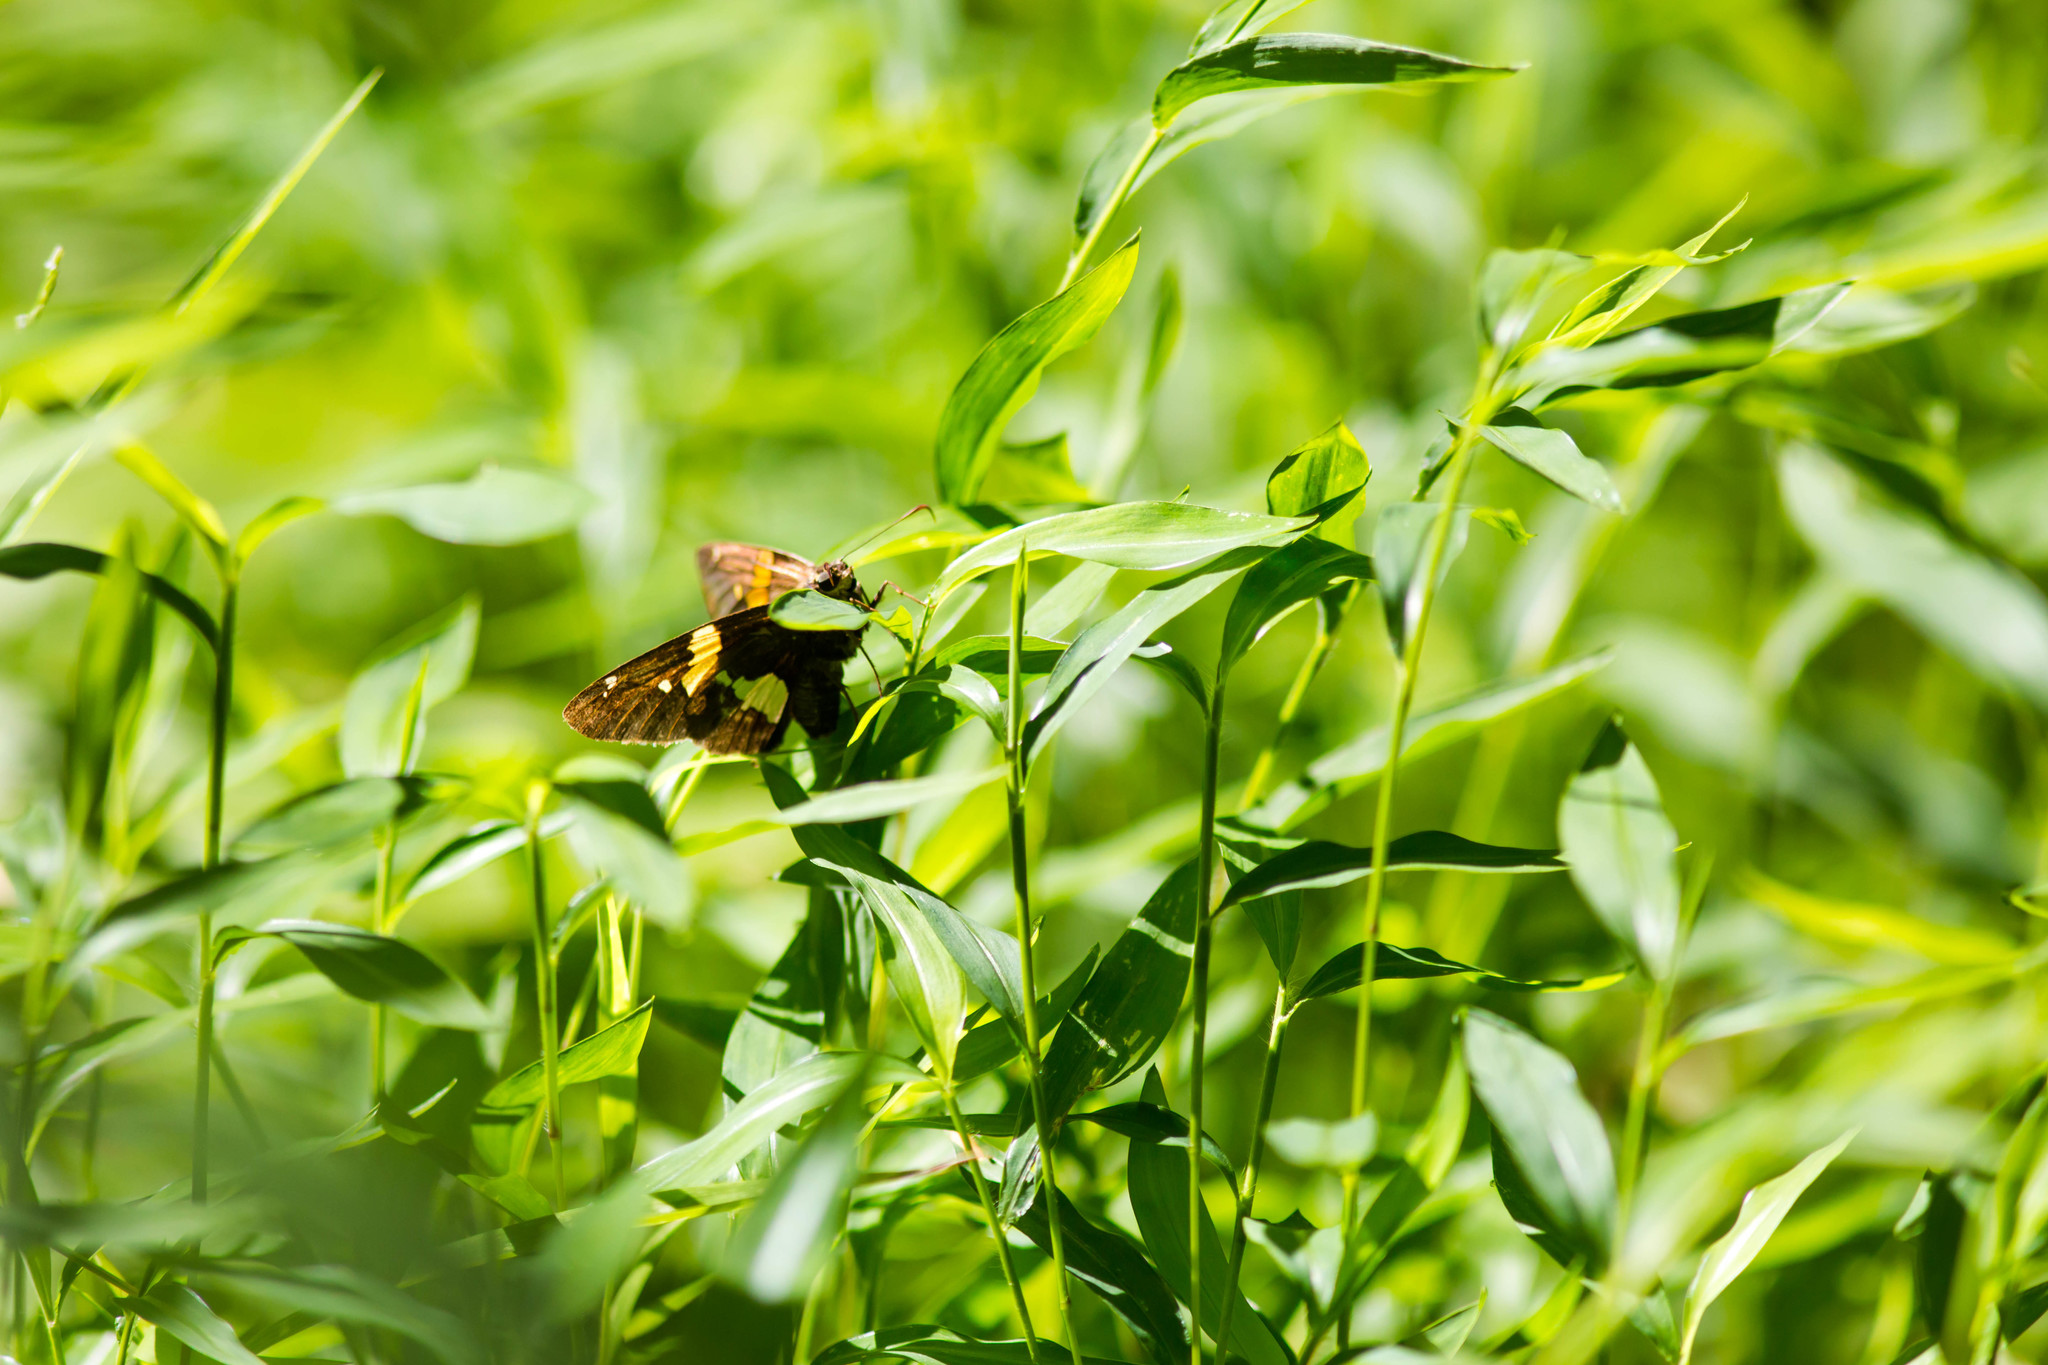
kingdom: Animalia
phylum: Arthropoda
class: Insecta
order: Lepidoptera
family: Hesperiidae
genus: Epargyreus
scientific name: Epargyreus clarus
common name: Silver-spotted skipper
